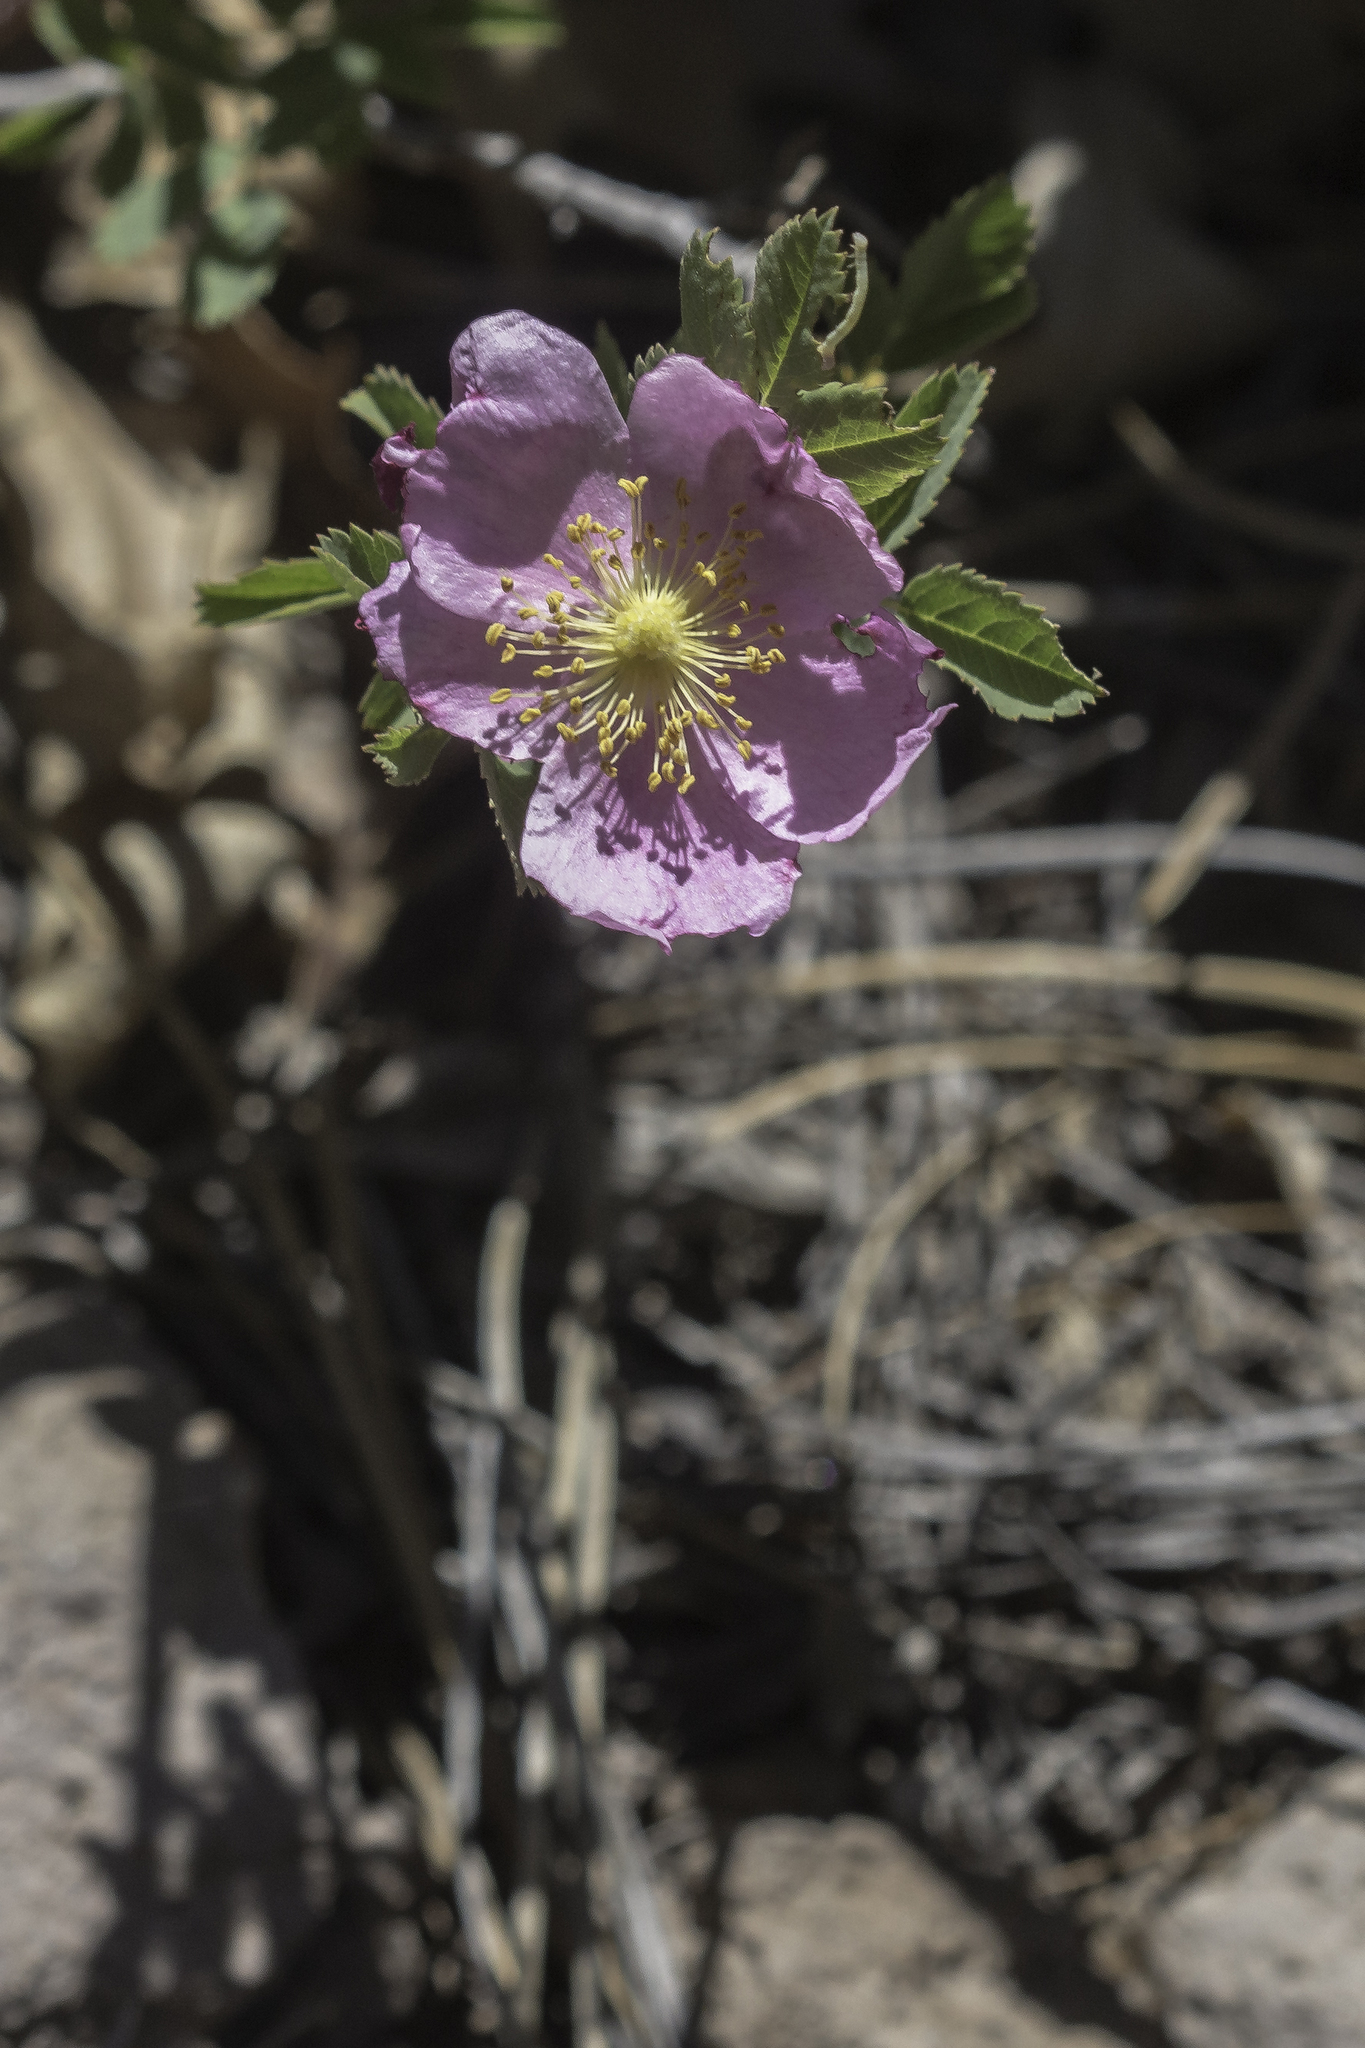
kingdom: Plantae
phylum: Tracheophyta
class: Magnoliopsida
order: Rosales
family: Rosaceae
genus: Rosa
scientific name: Rosa woodsii
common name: Woods's rose
